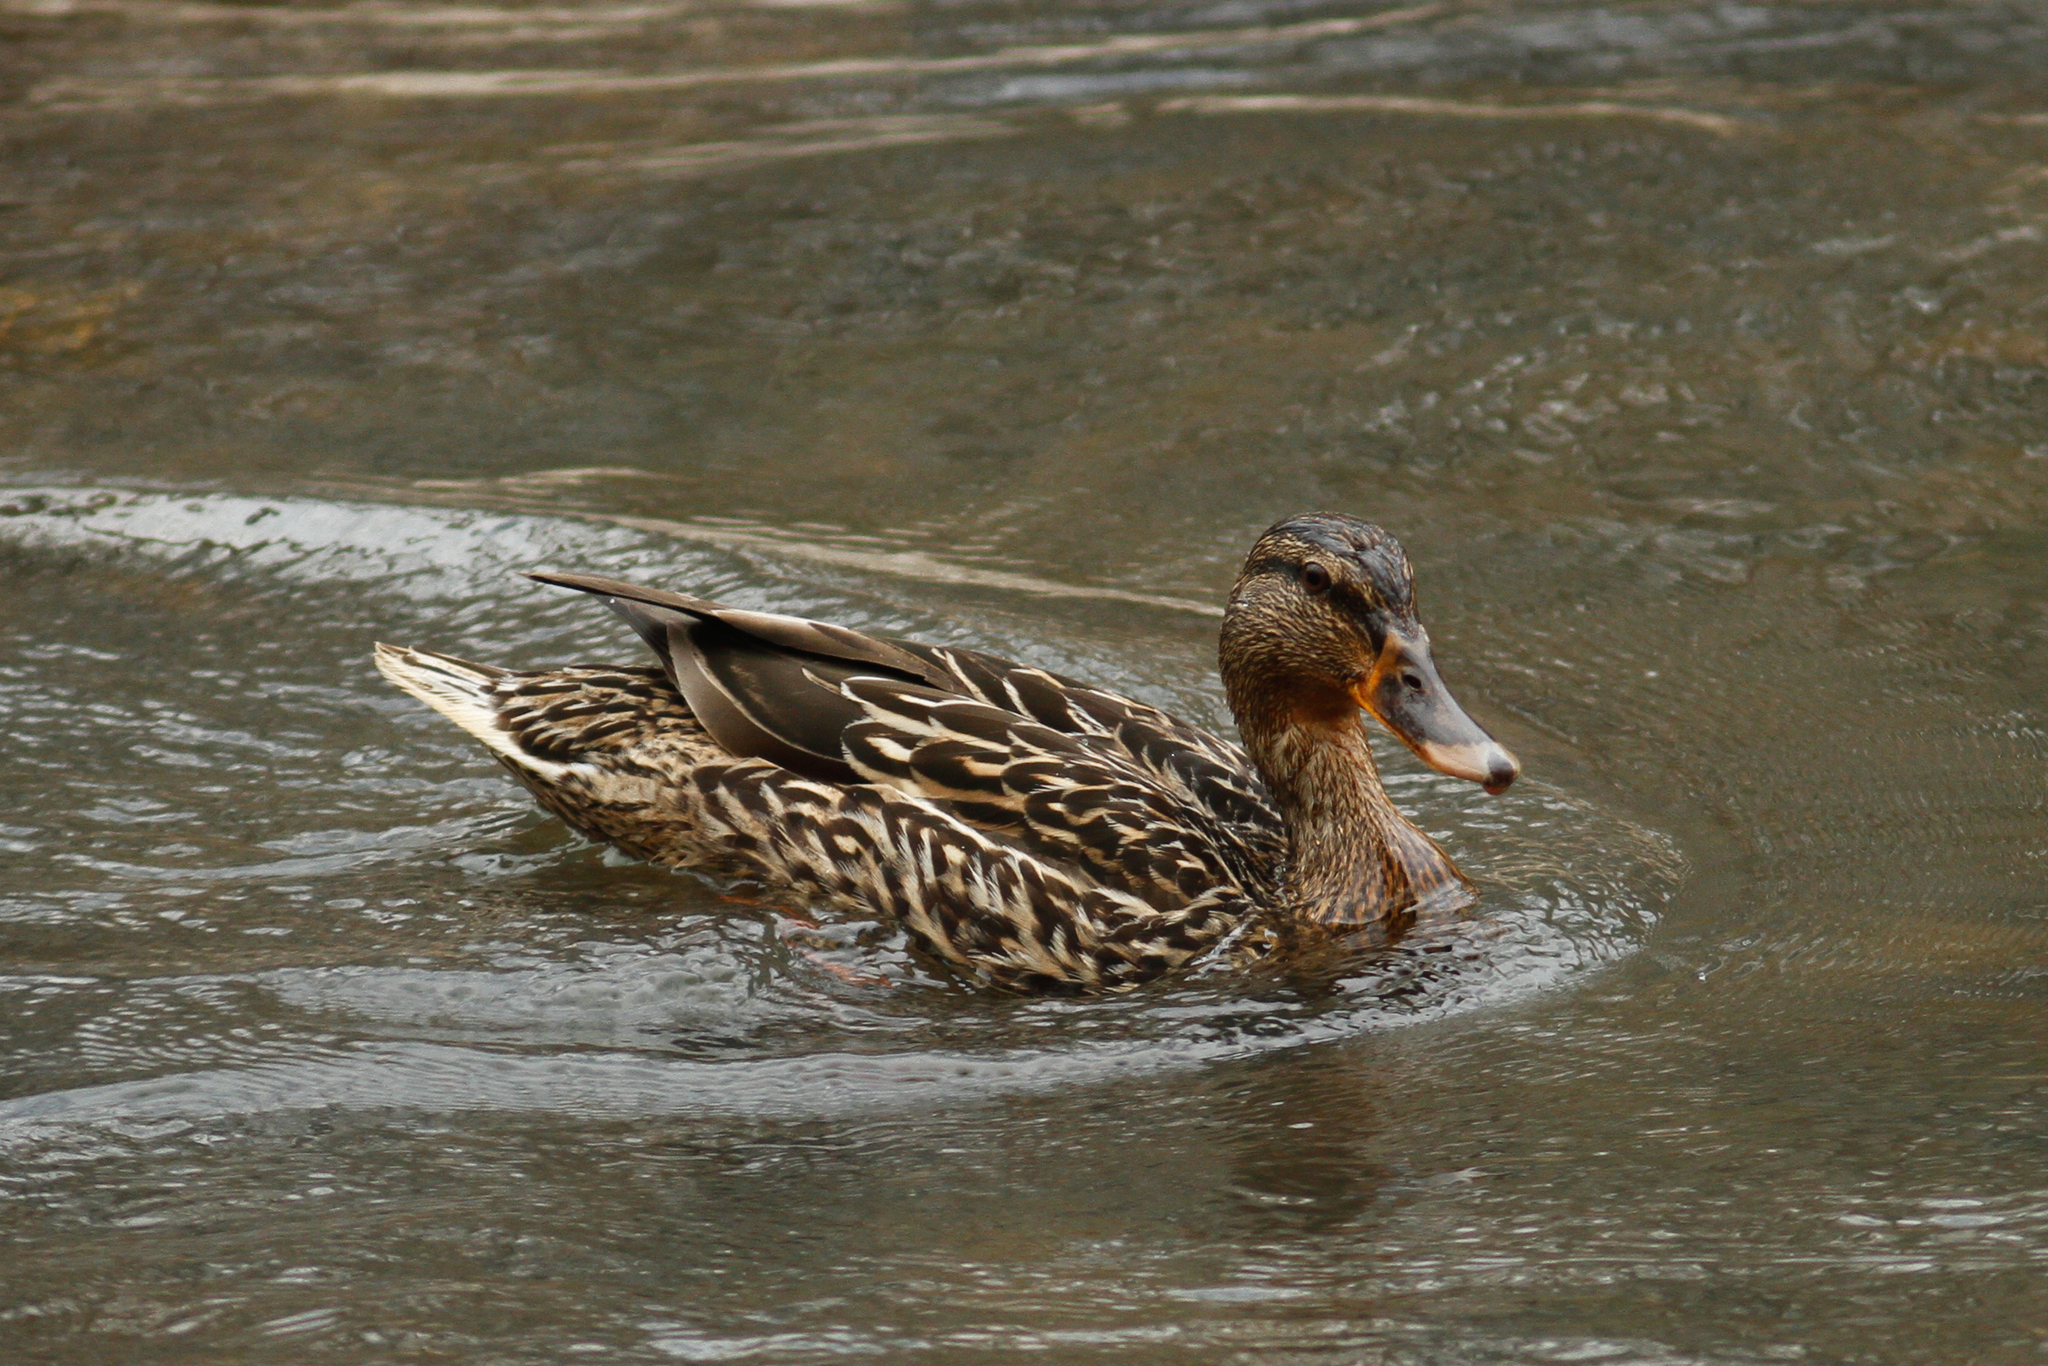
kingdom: Animalia
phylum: Chordata
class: Aves
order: Anseriformes
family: Anatidae
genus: Anas
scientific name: Anas platyrhynchos
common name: Mallard
